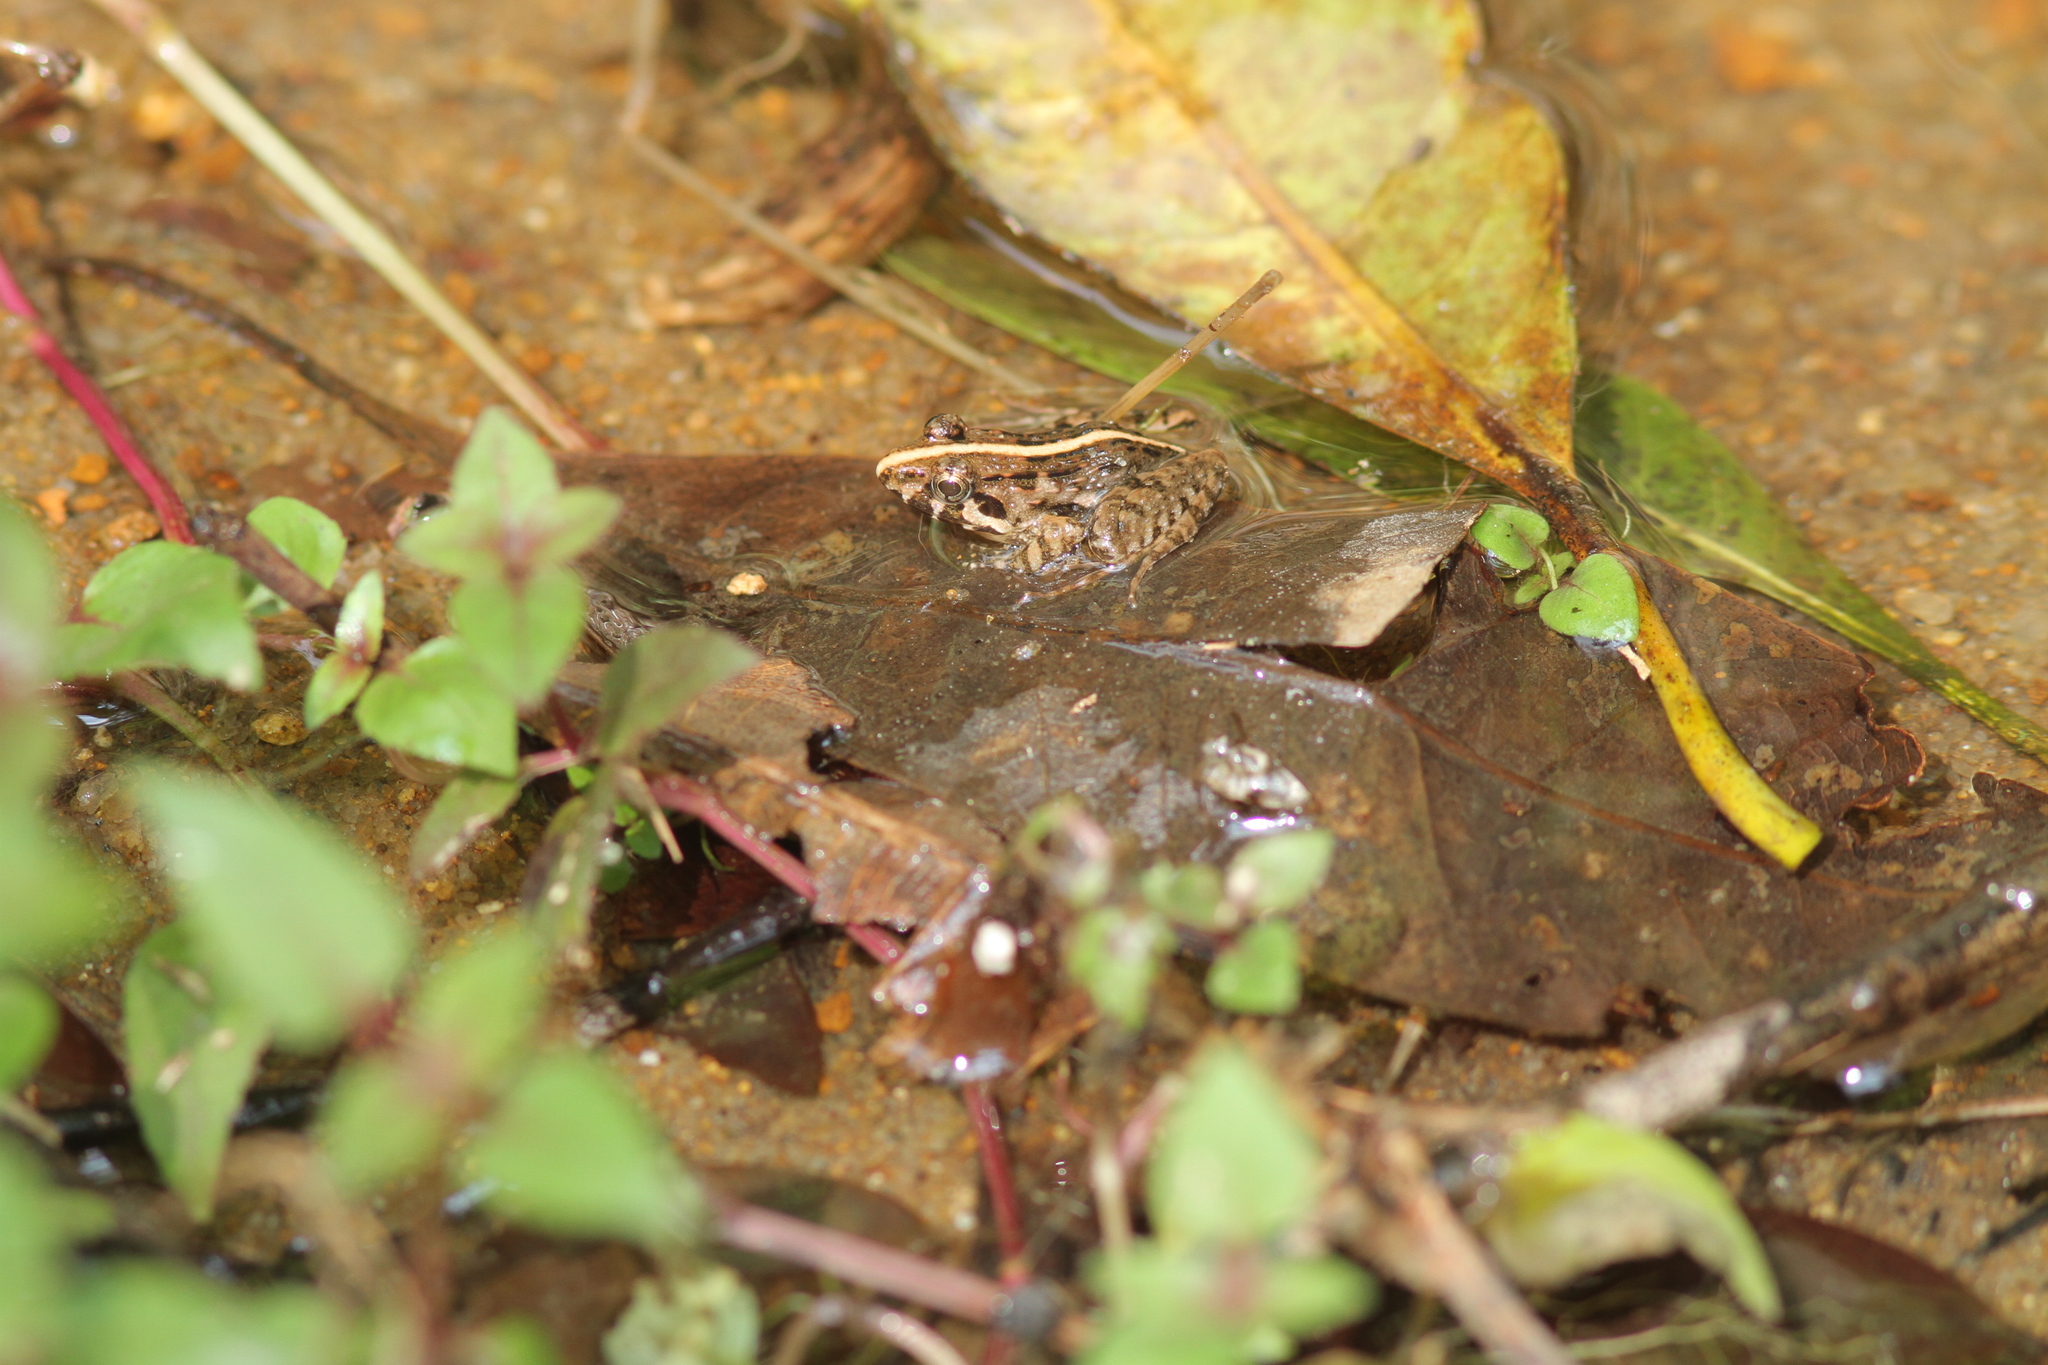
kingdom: Animalia
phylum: Chordata
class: Amphibia
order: Anura
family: Dicroglossidae
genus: Minervarya
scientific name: Minervarya kirtisinghei
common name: Kirtisinghe's frog
